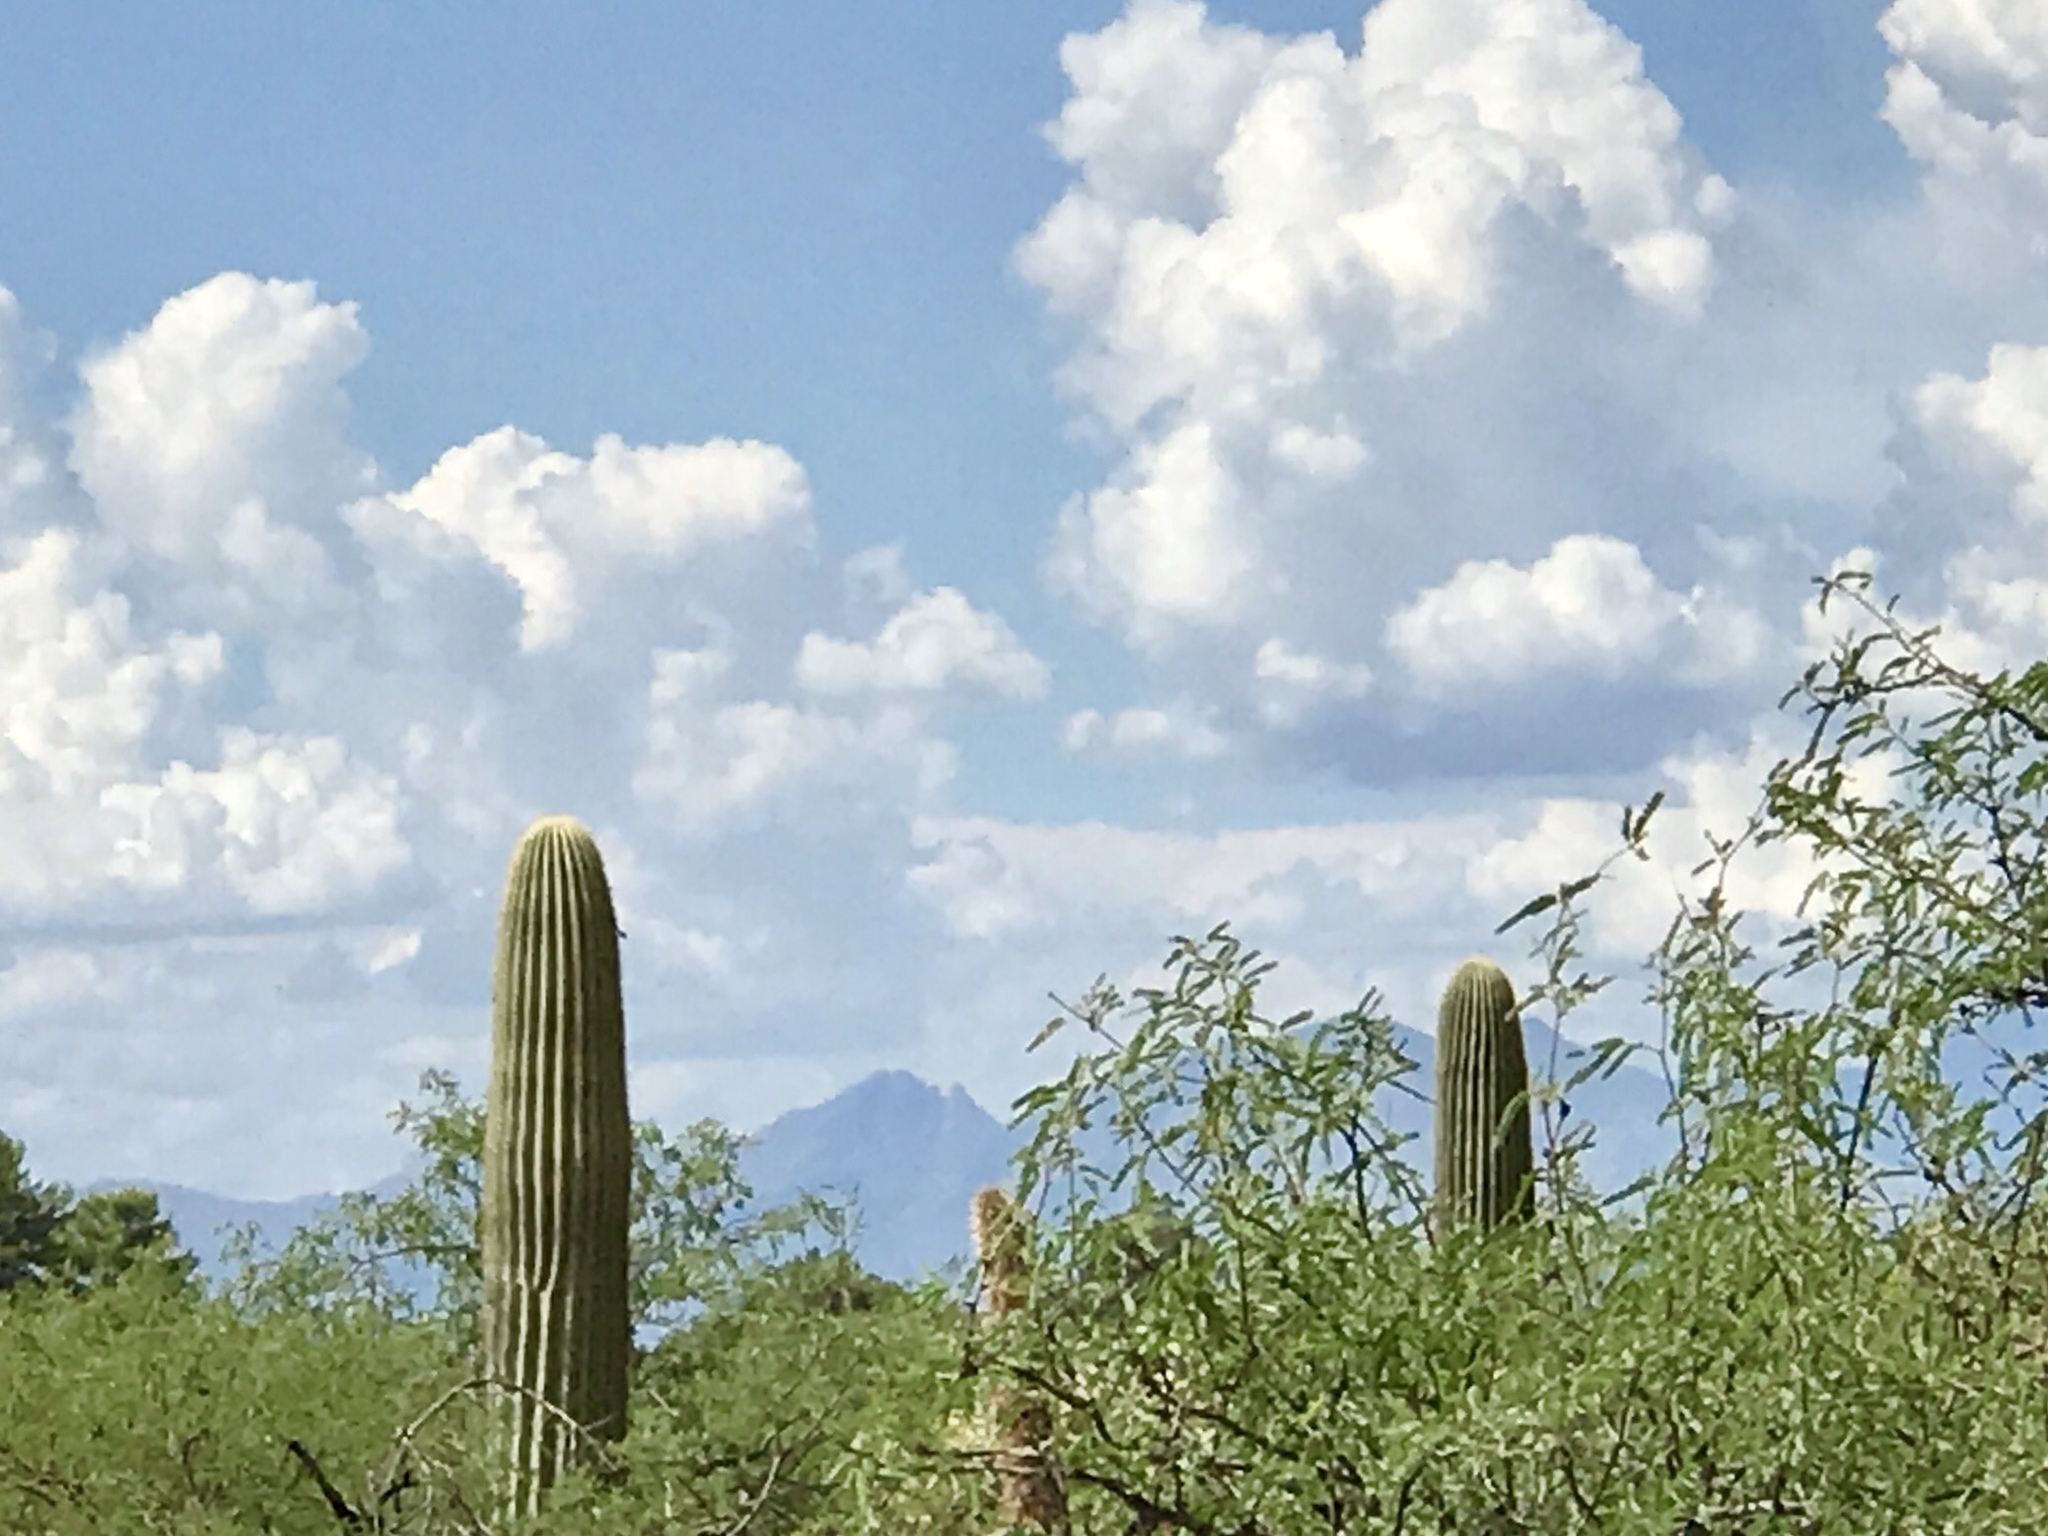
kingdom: Plantae
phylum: Tracheophyta
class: Magnoliopsida
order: Caryophyllales
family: Cactaceae
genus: Carnegiea
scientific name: Carnegiea gigantea
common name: Saguaro
